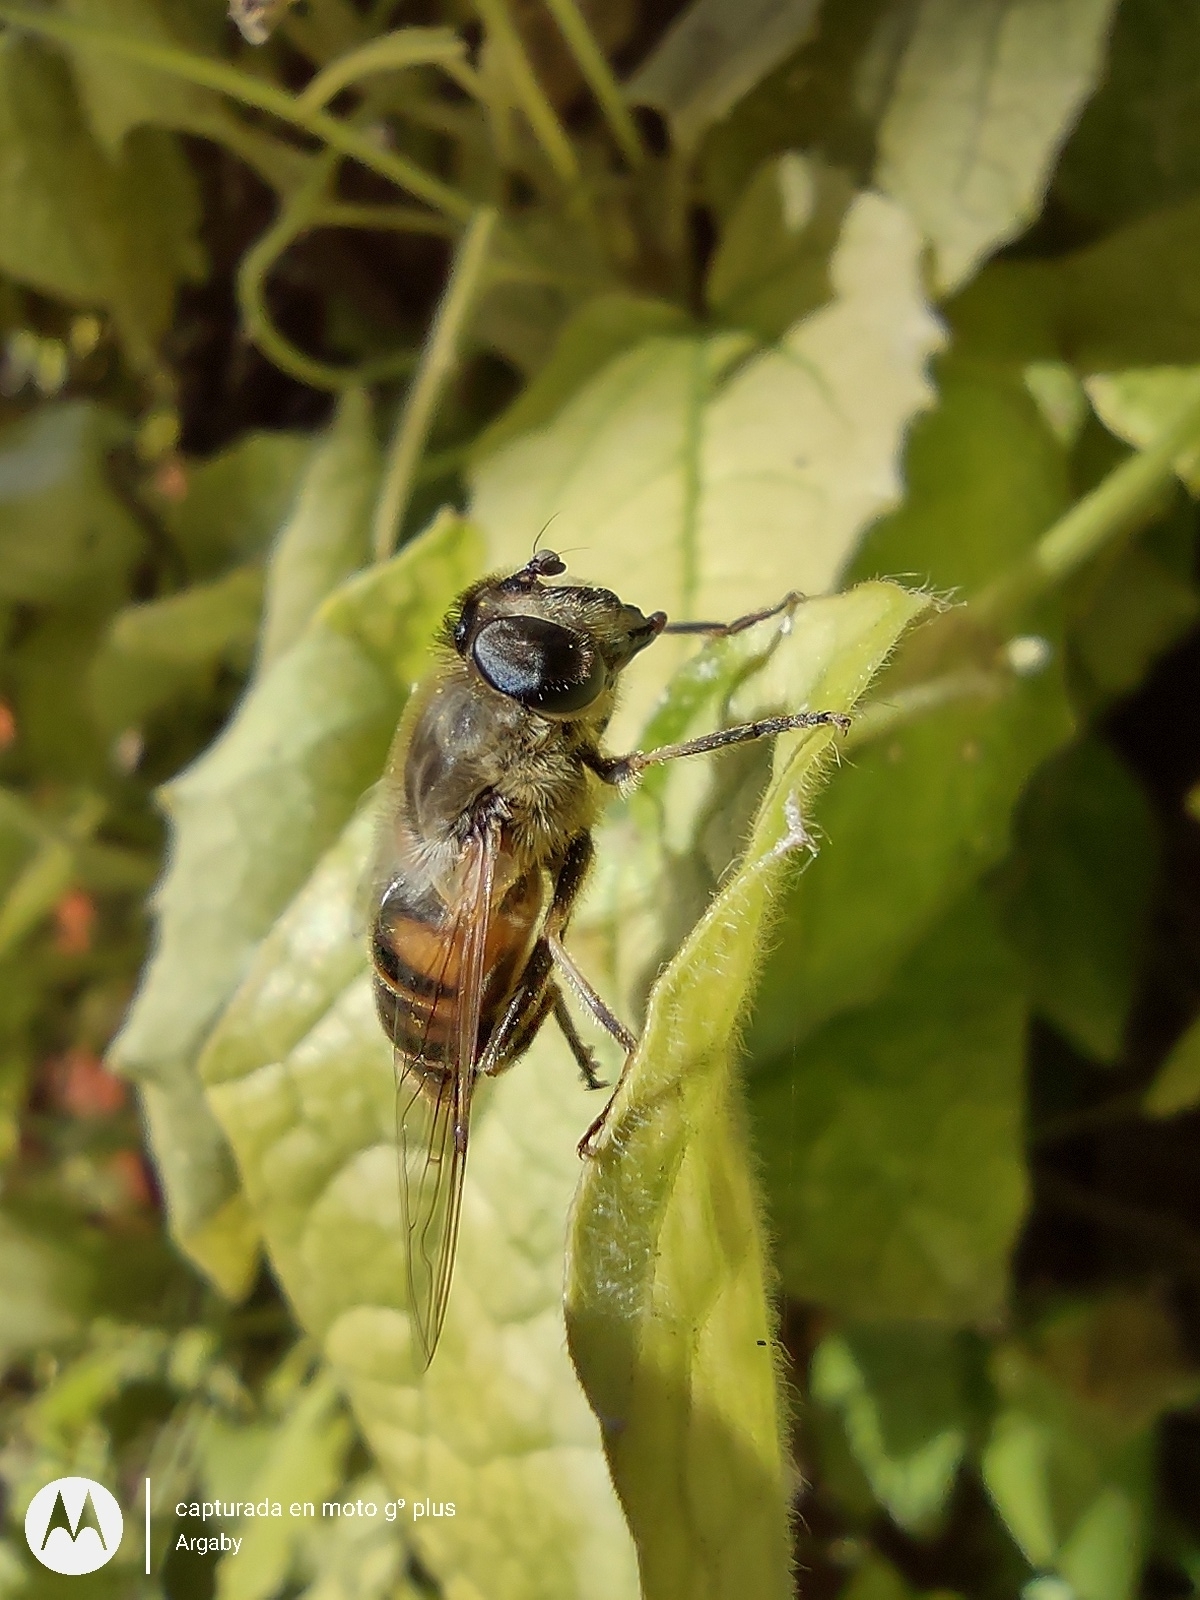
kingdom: Animalia
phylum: Arthropoda
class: Insecta
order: Diptera
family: Syrphidae
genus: Eristalis
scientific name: Eristalis tenax
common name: Drone fly
